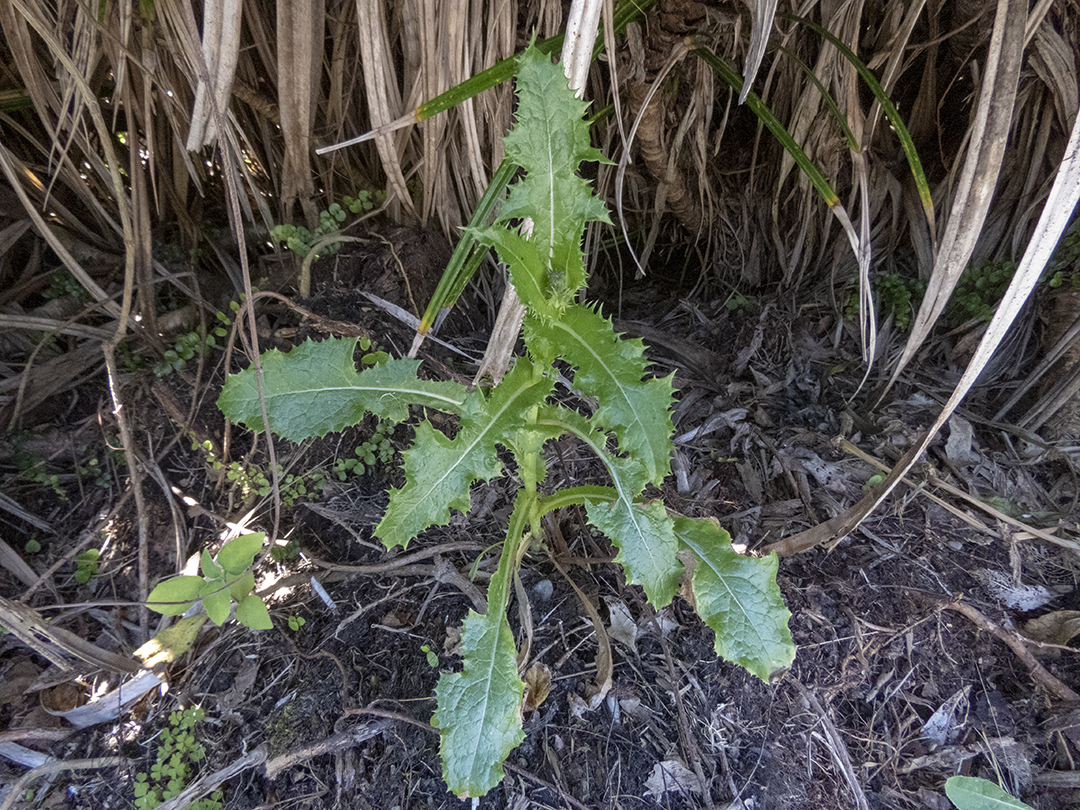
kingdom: Plantae
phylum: Tracheophyta
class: Magnoliopsida
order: Asterales
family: Asteraceae
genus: Sonchus
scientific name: Sonchus asper
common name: Prickly sow-thistle
